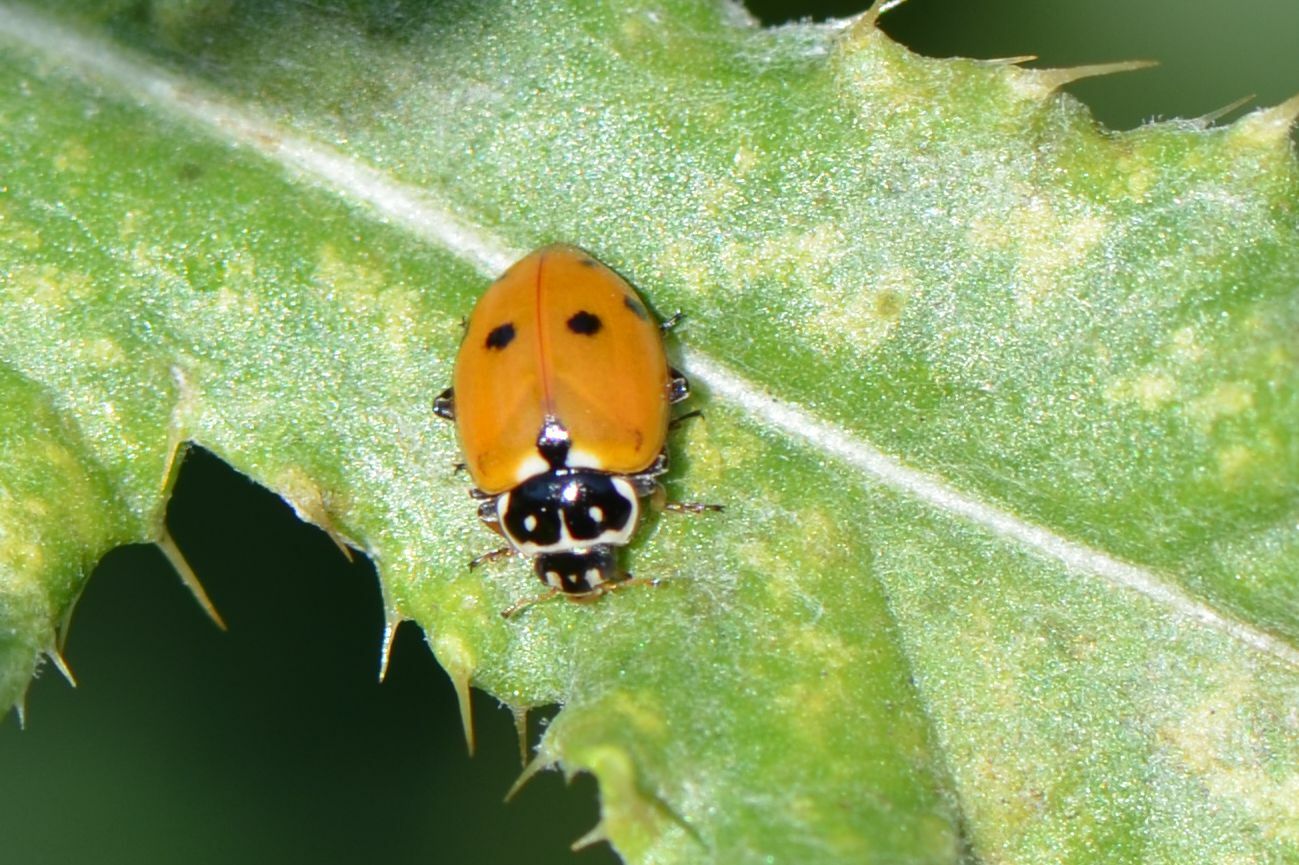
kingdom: Animalia
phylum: Arthropoda
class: Insecta
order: Coleoptera
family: Coccinellidae
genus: Hippodamia
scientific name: Hippodamia variegata
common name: Ladybird beetle
